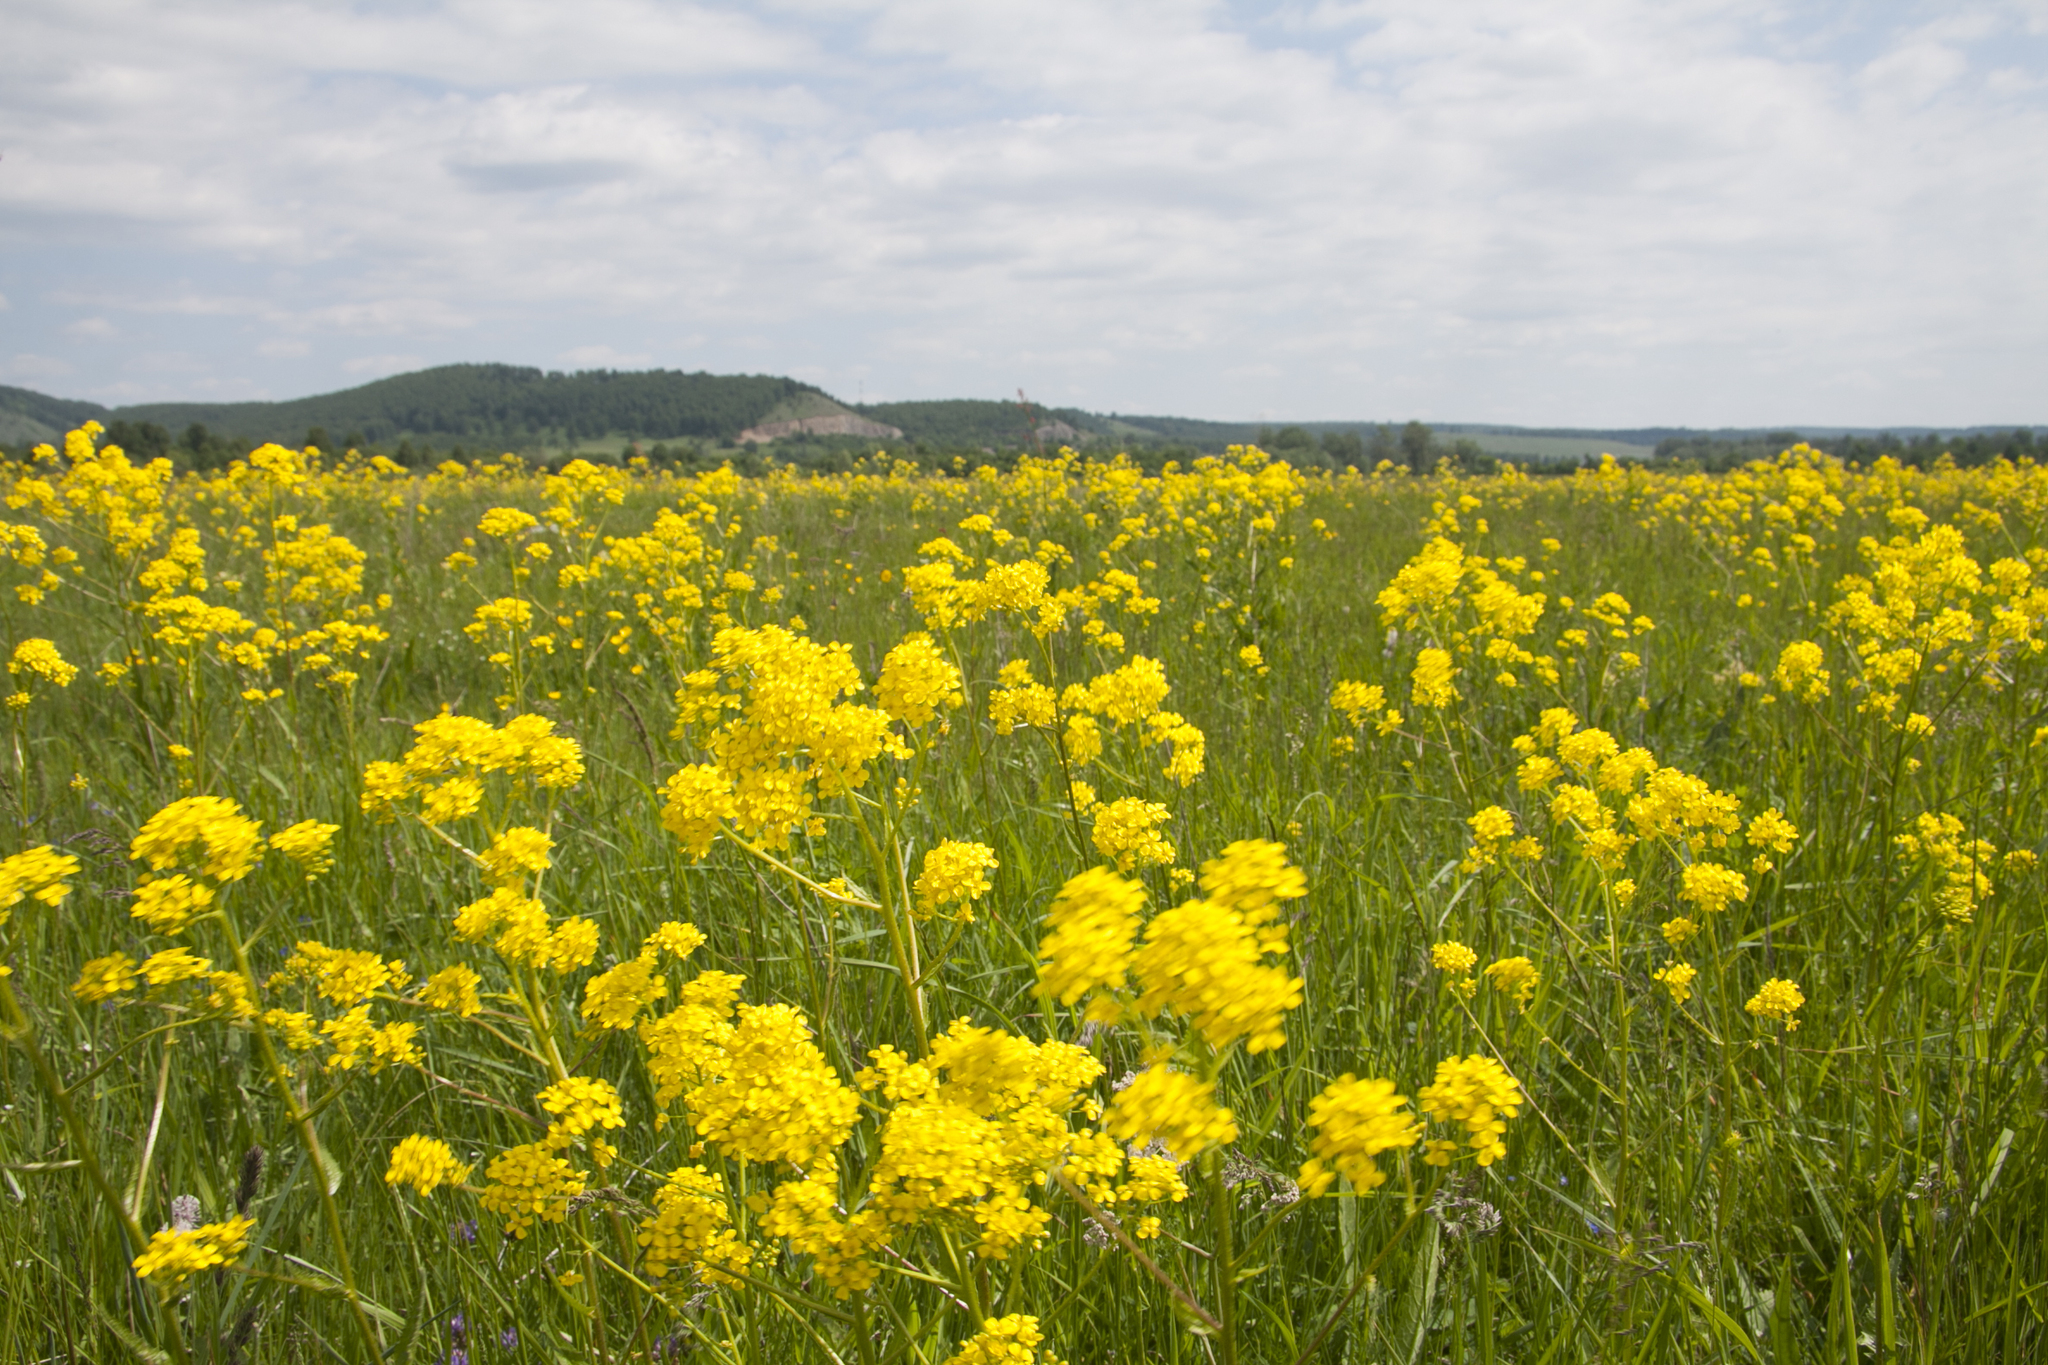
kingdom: Plantae
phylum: Tracheophyta
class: Magnoliopsida
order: Brassicales
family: Brassicaceae
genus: Bunias
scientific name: Bunias orientalis
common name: Warty-cabbage
